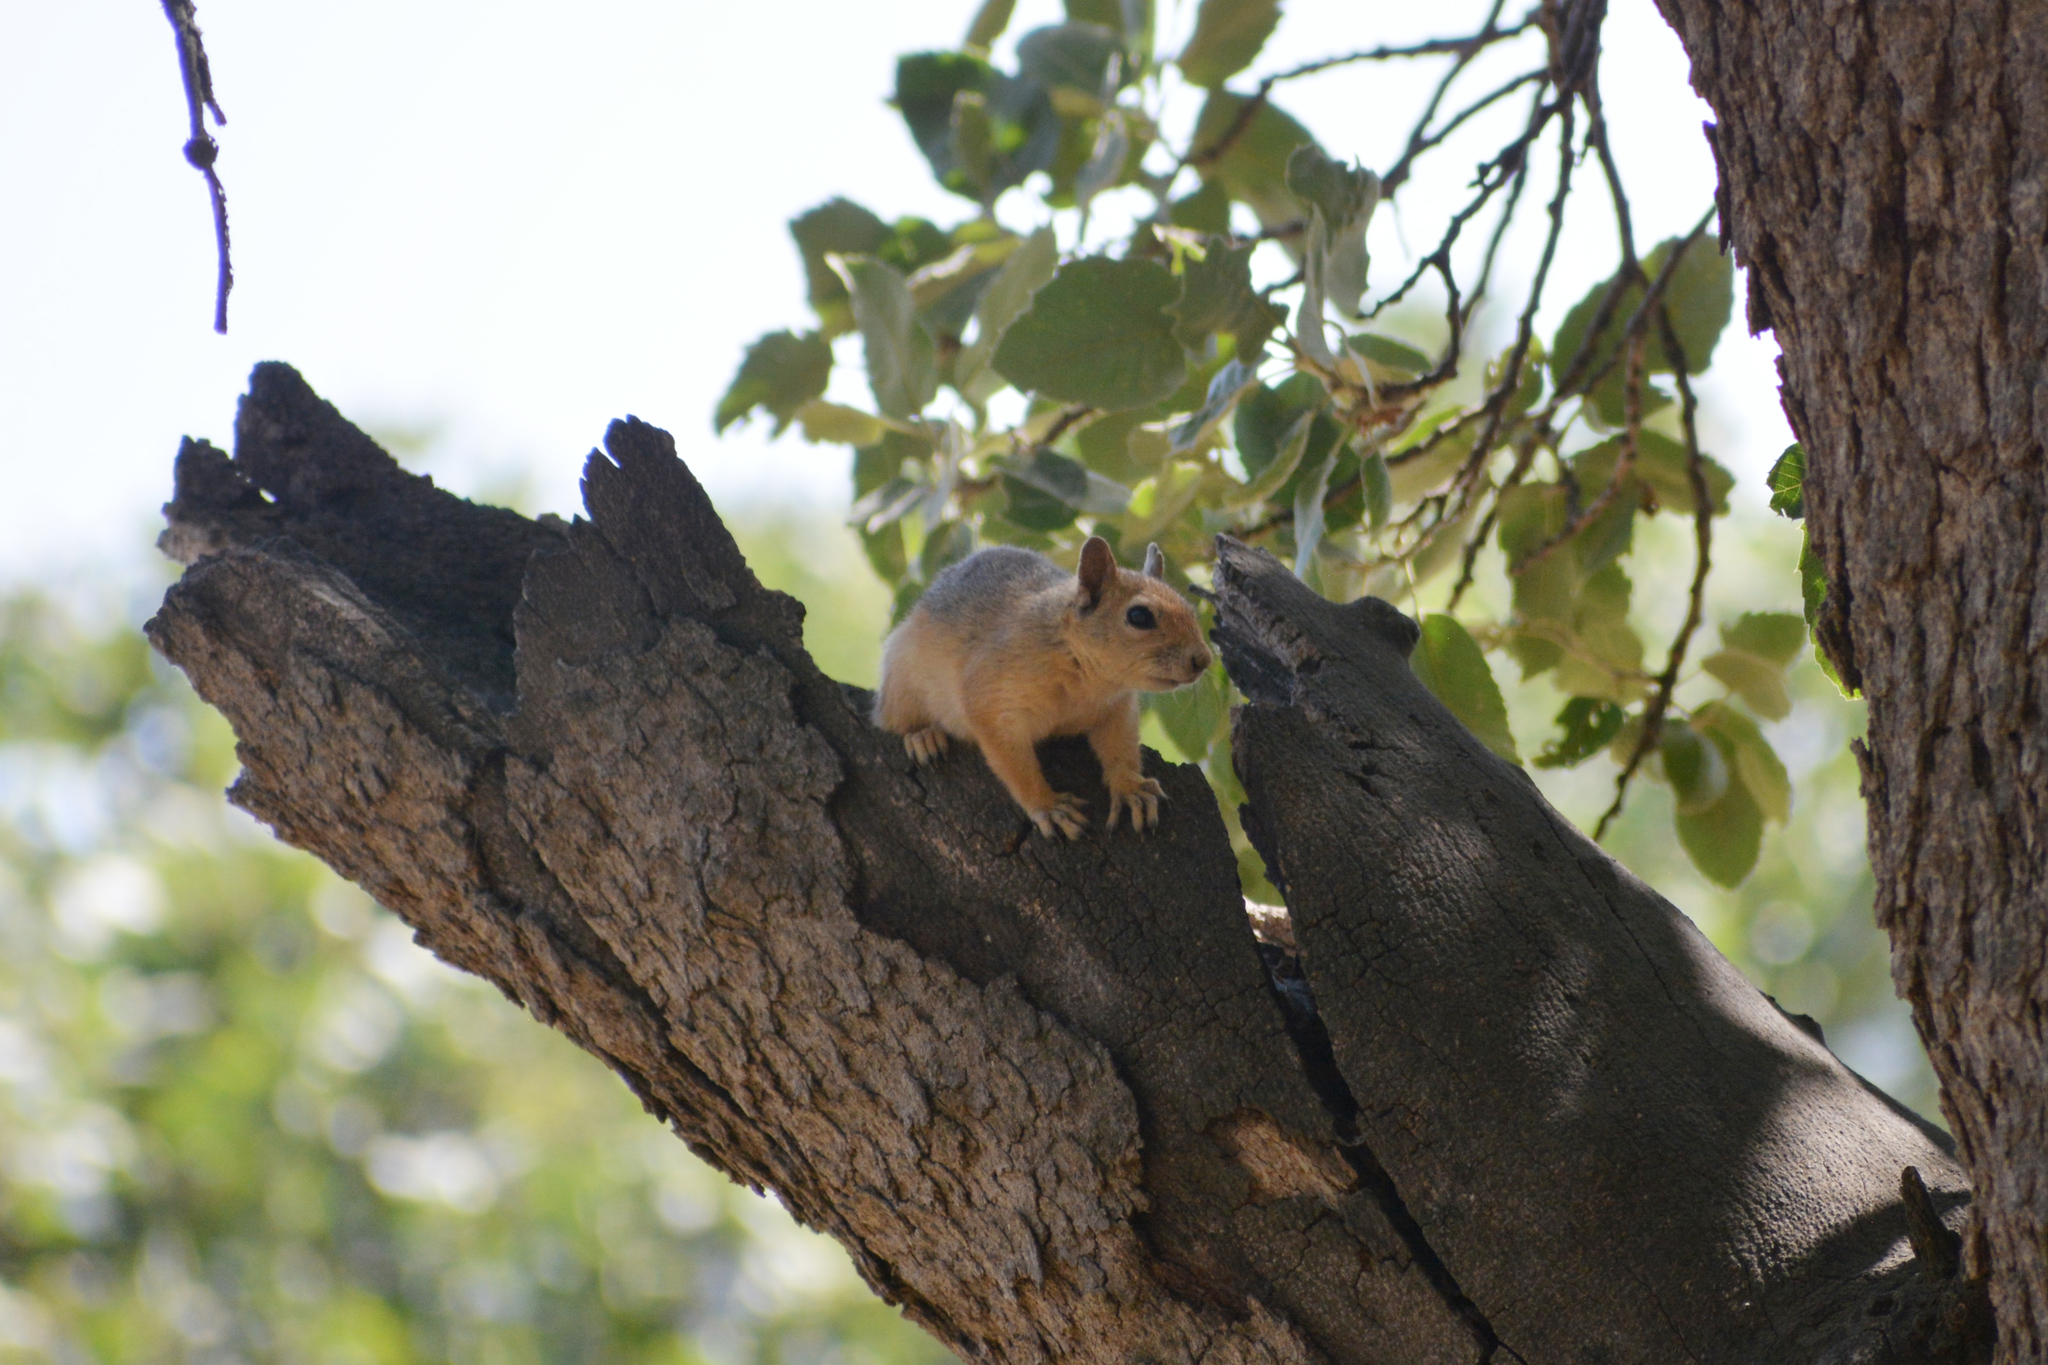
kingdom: Animalia
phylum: Chordata
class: Mammalia
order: Rodentia
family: Sciuridae
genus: Sciurus
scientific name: Sciurus anomalus
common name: Caucasian squirrel
